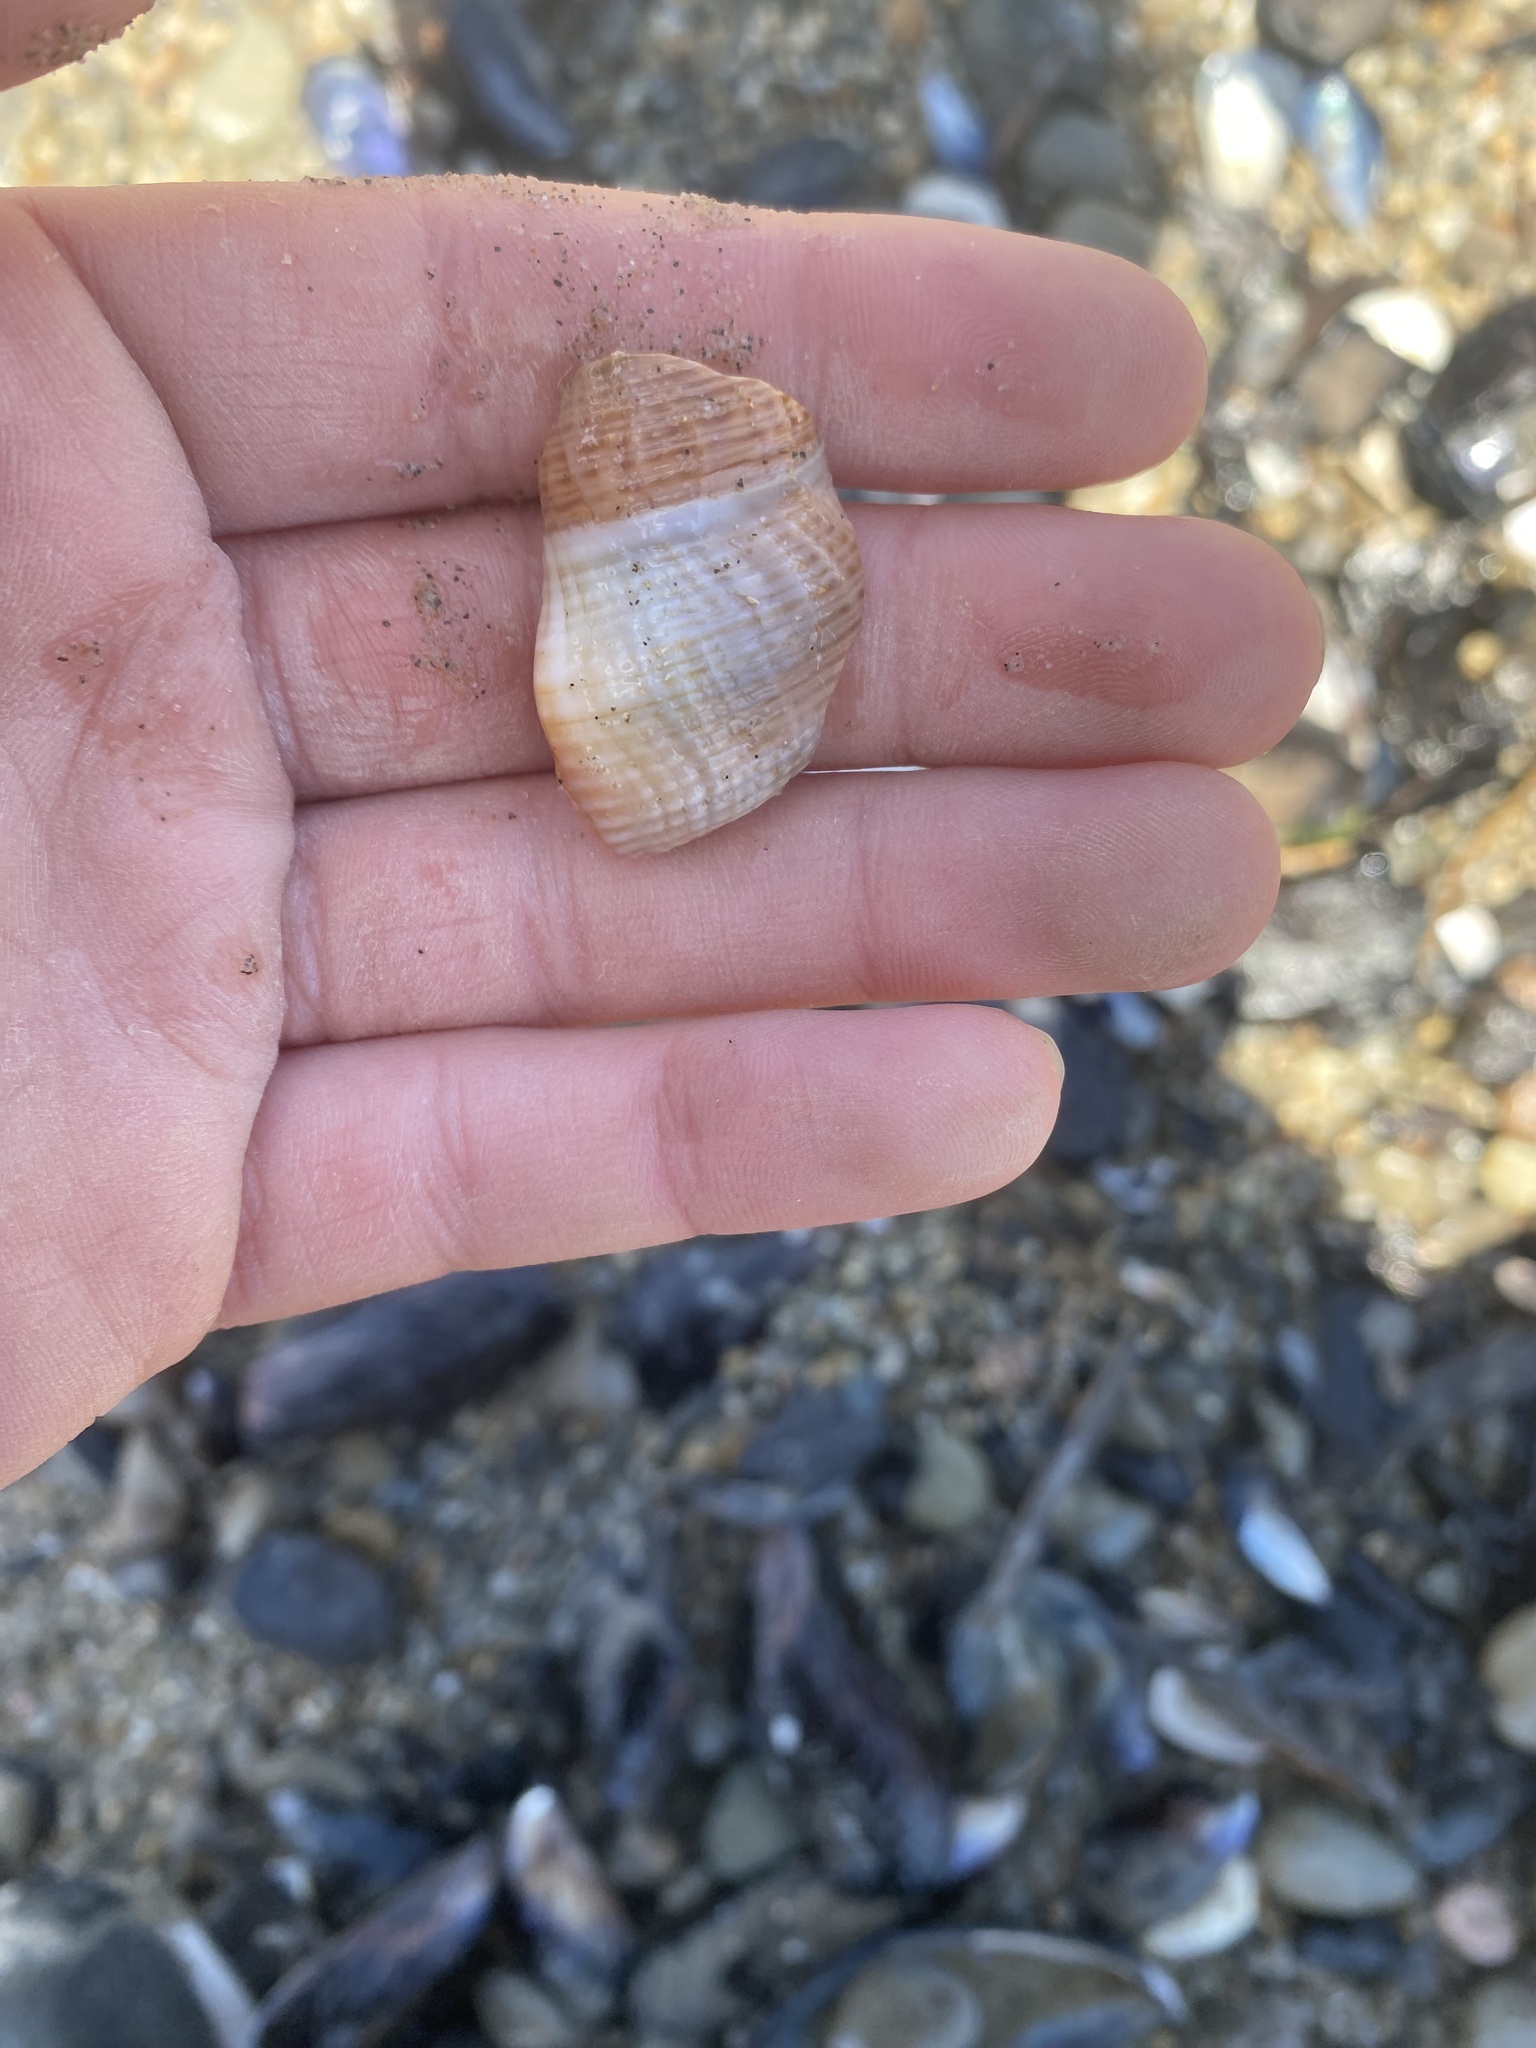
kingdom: Animalia
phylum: Mollusca
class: Gastropoda
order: Neogastropoda
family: Nassariidae
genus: Caesia
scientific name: Caesia fossata
